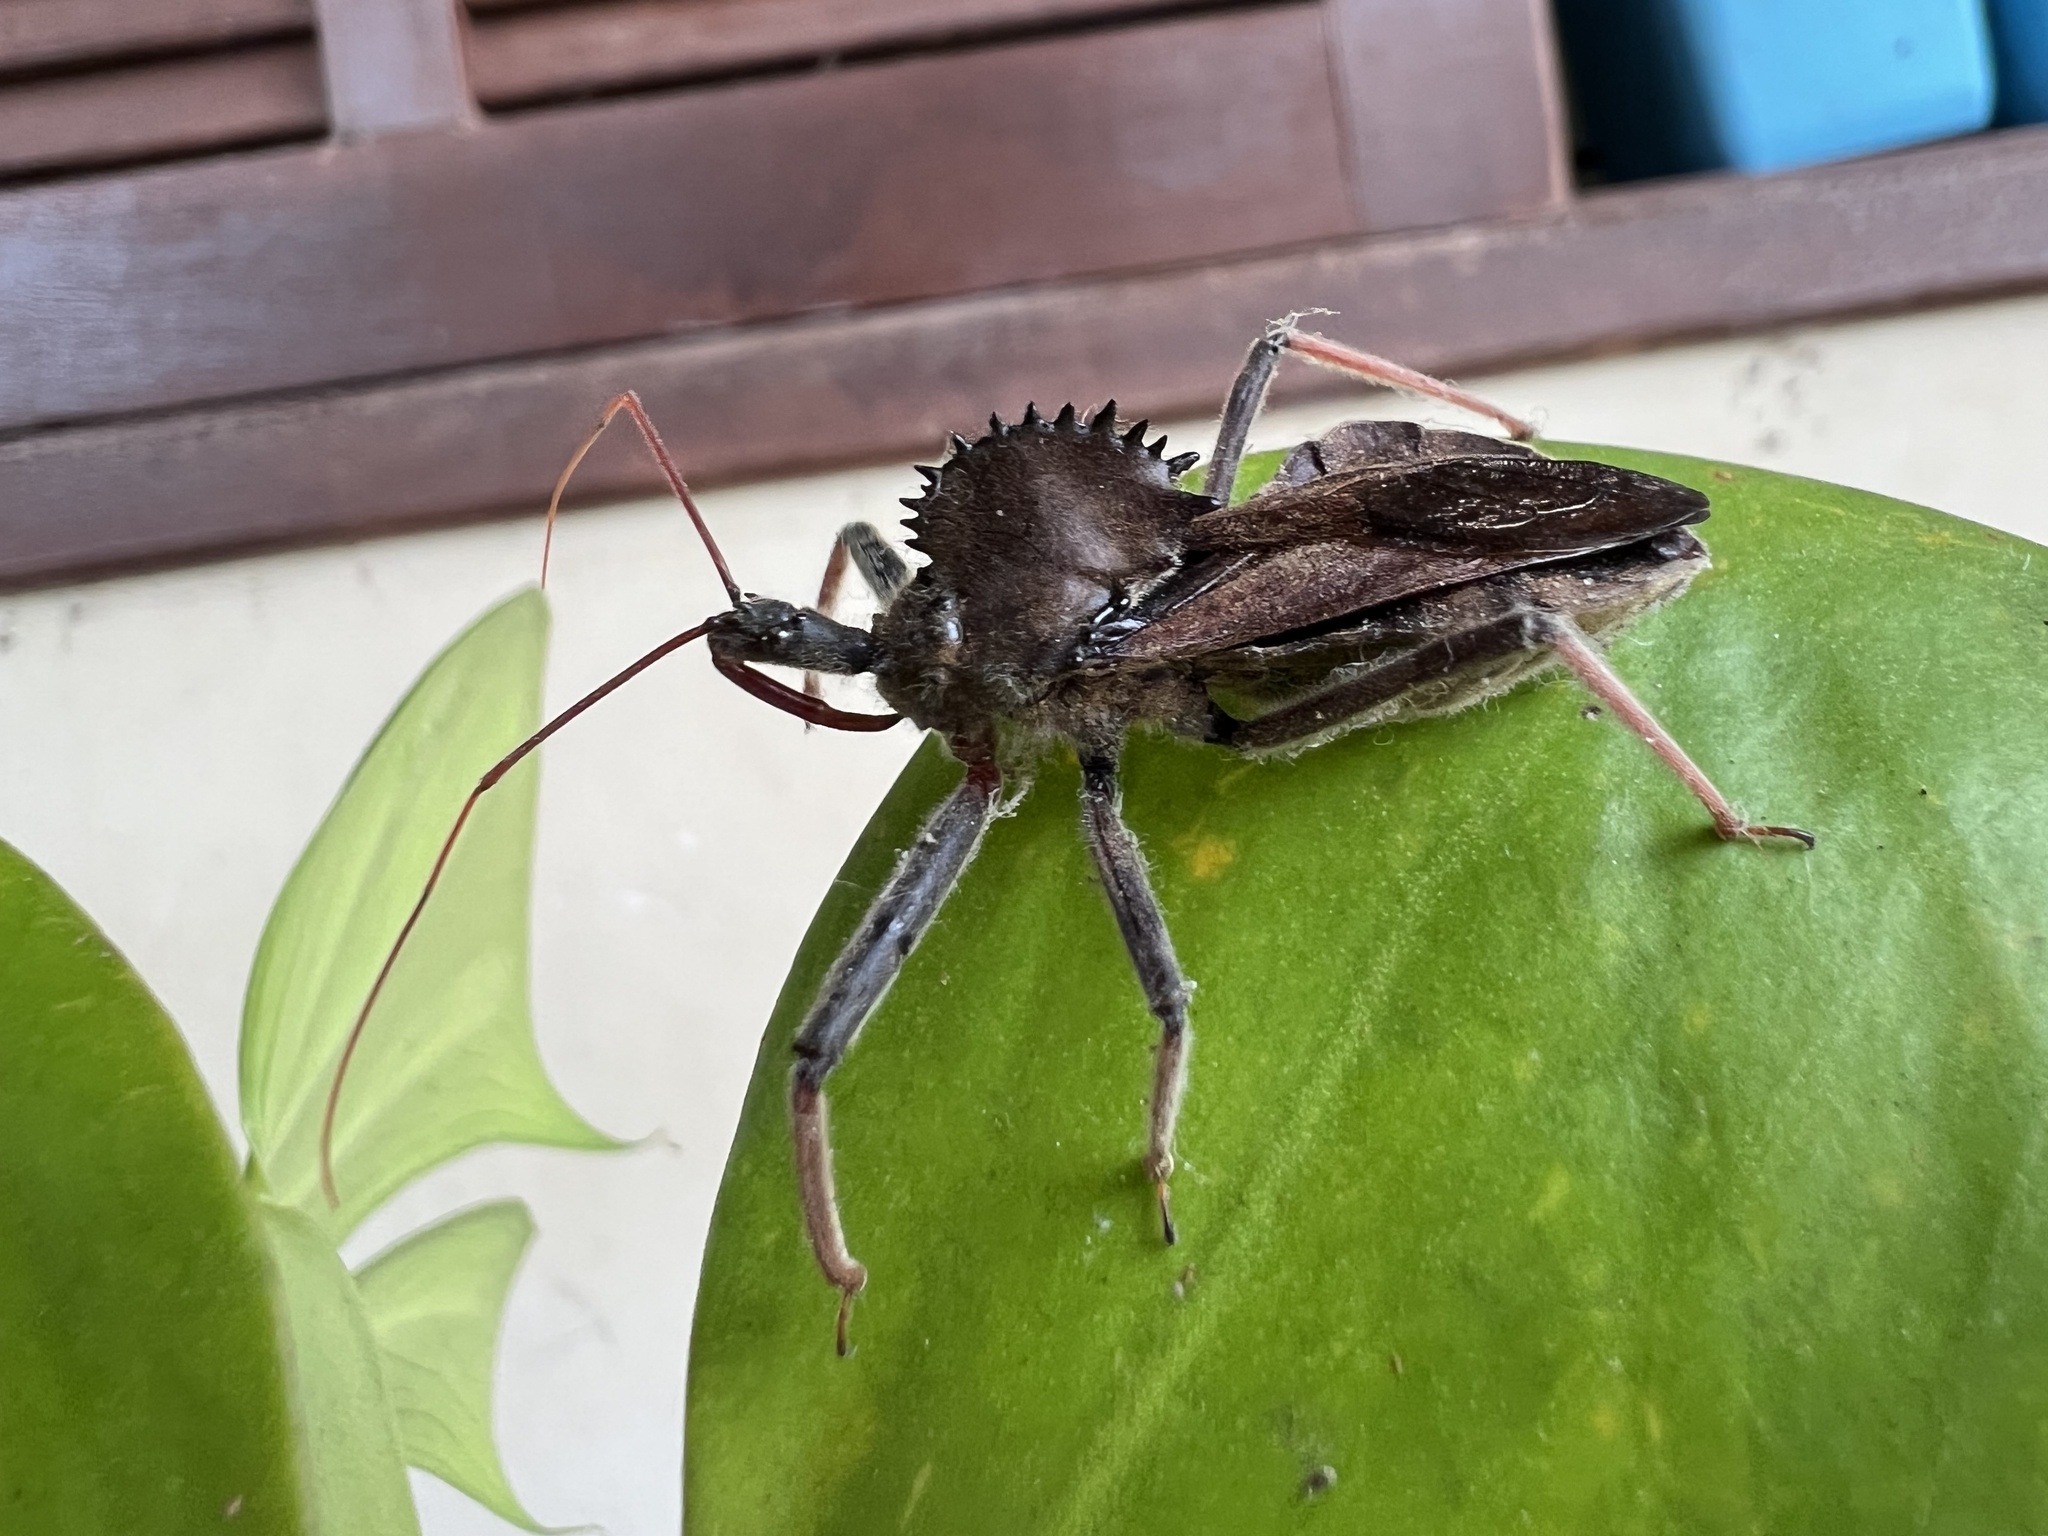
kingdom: Animalia
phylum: Arthropoda
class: Insecta
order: Hemiptera
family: Reduviidae
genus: Arilus
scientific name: Arilus carinatus
